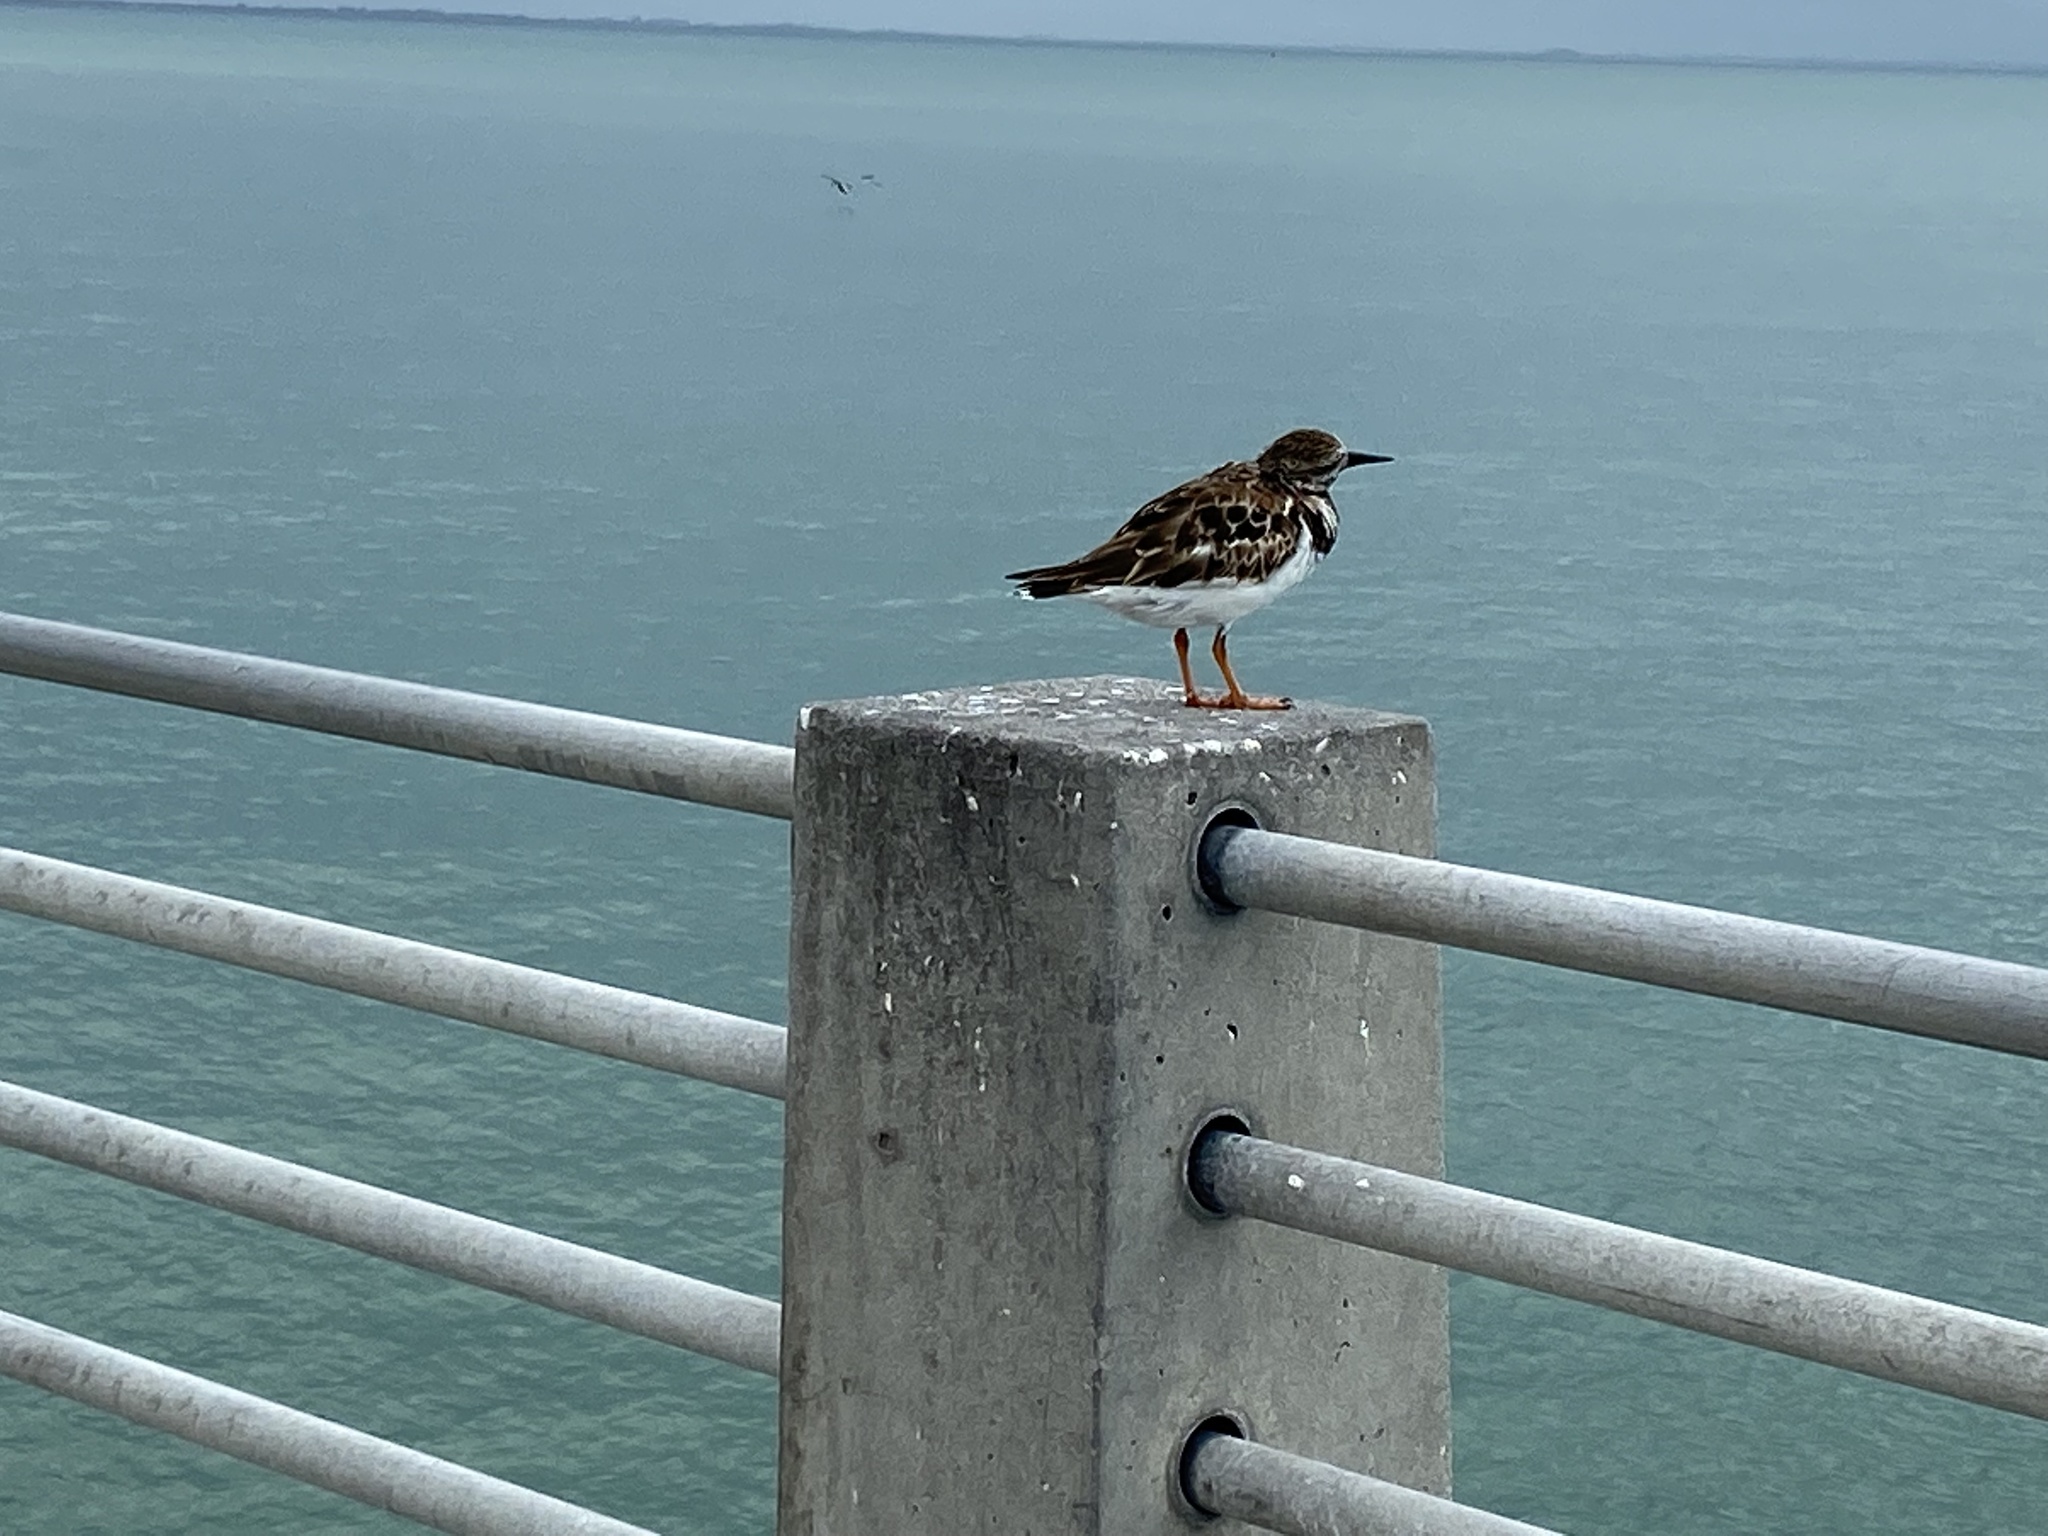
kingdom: Animalia
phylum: Chordata
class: Aves
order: Charadriiformes
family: Scolopacidae
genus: Arenaria
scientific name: Arenaria interpres
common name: Ruddy turnstone
